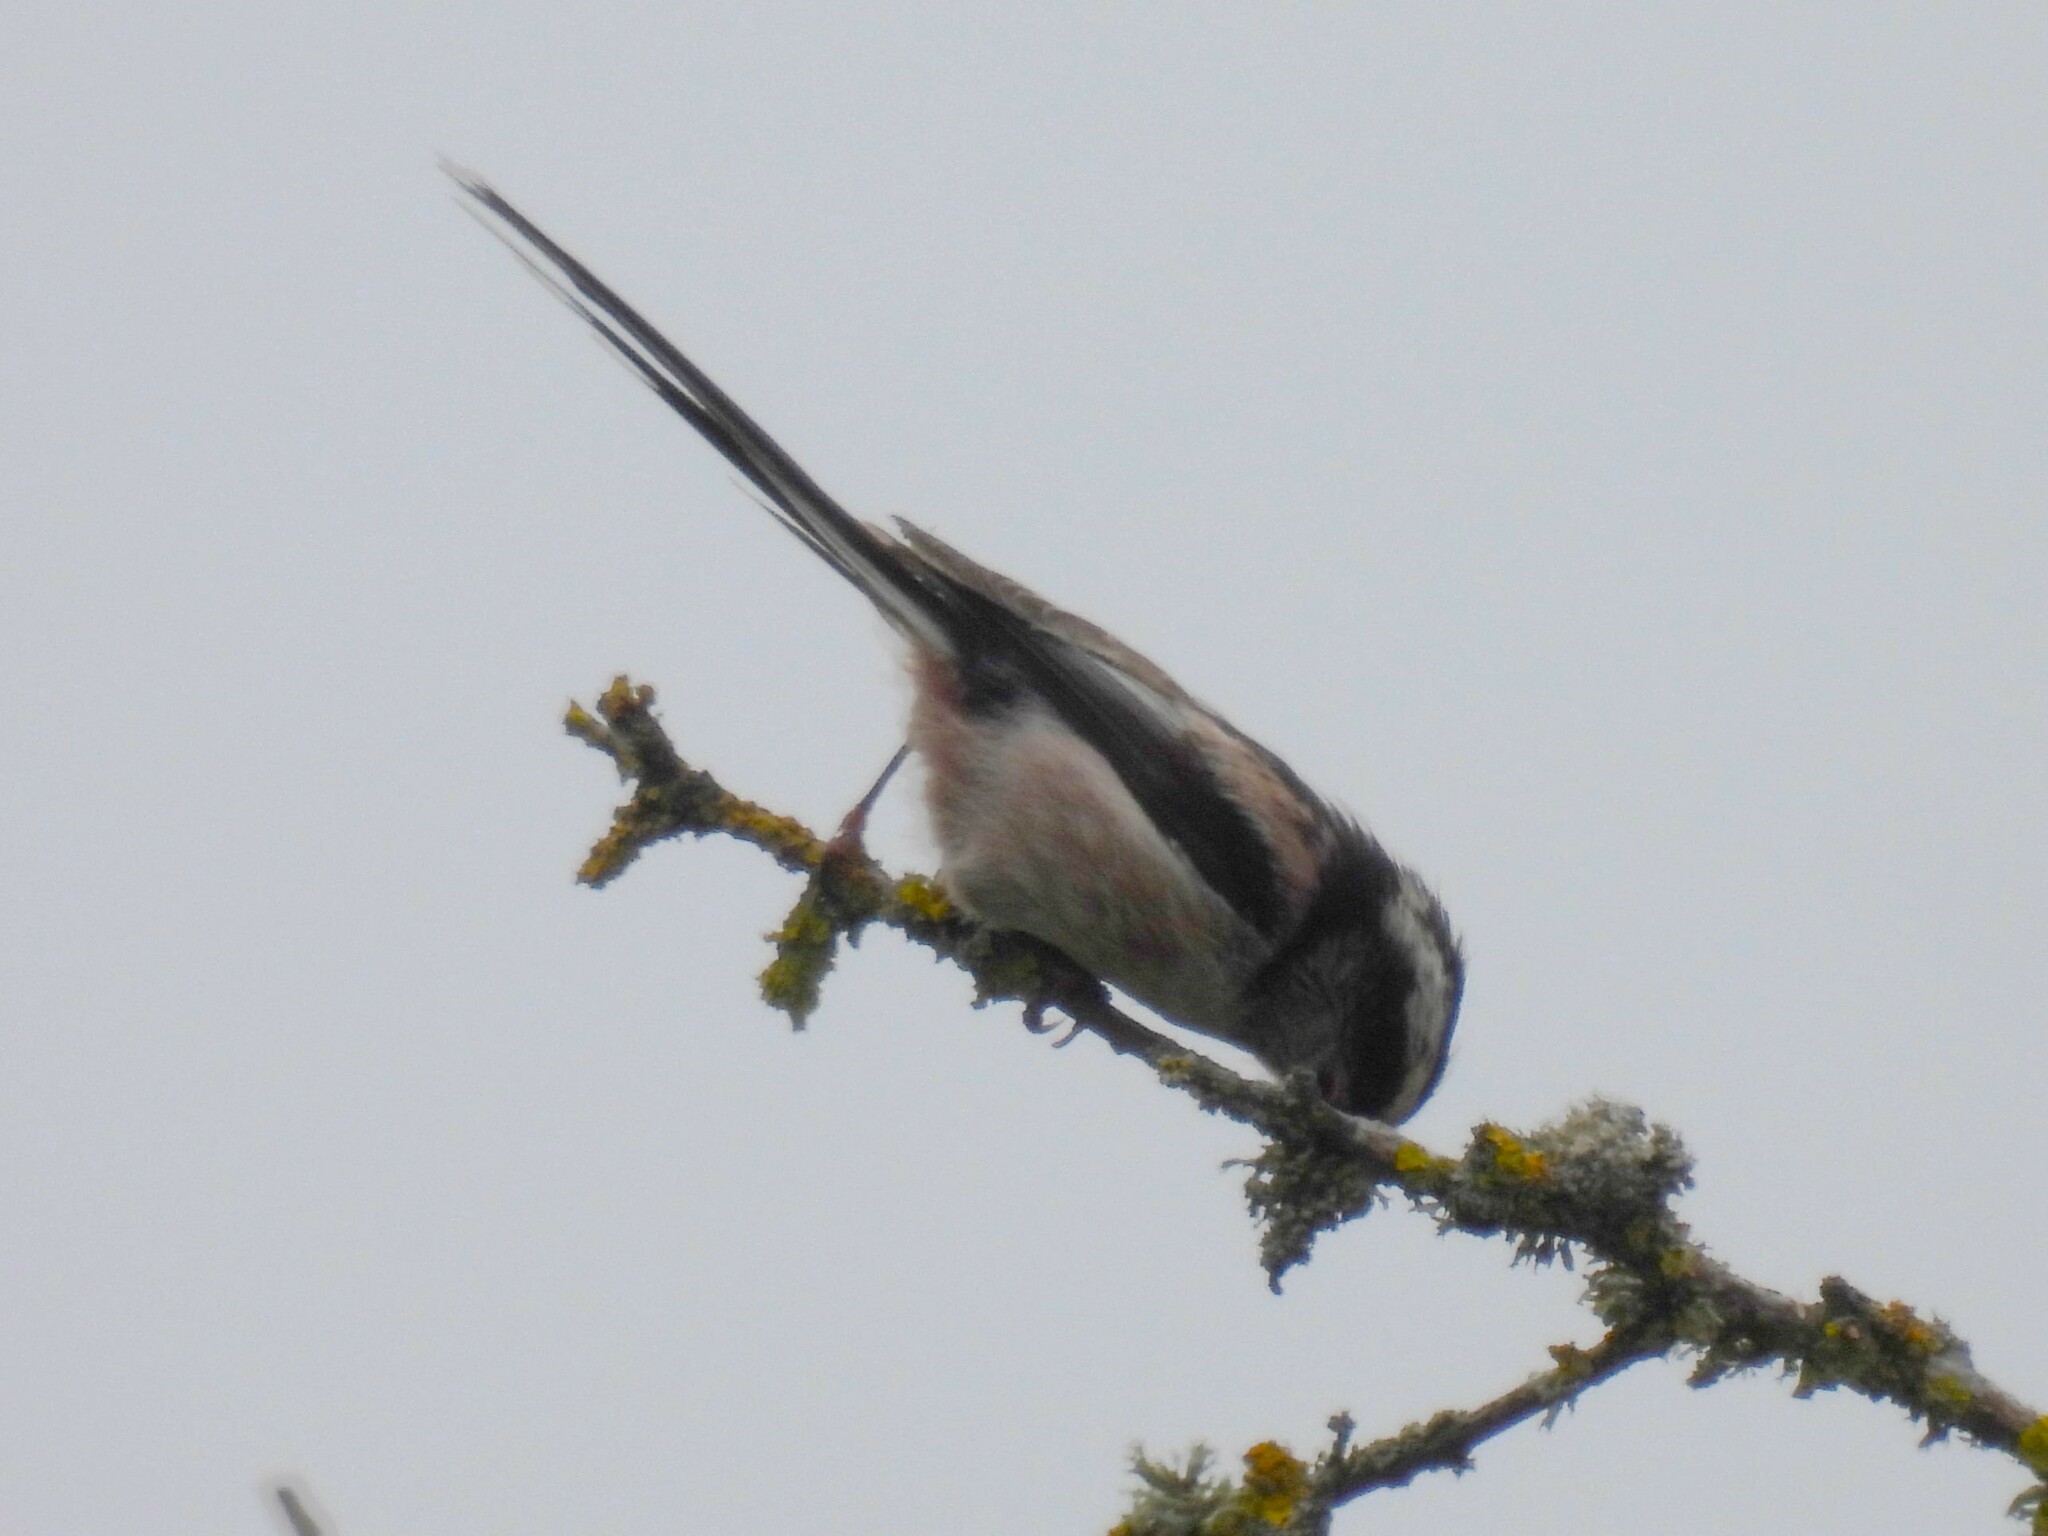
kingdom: Animalia
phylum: Chordata
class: Aves
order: Passeriformes
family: Aegithalidae
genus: Aegithalos
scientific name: Aegithalos caudatus
